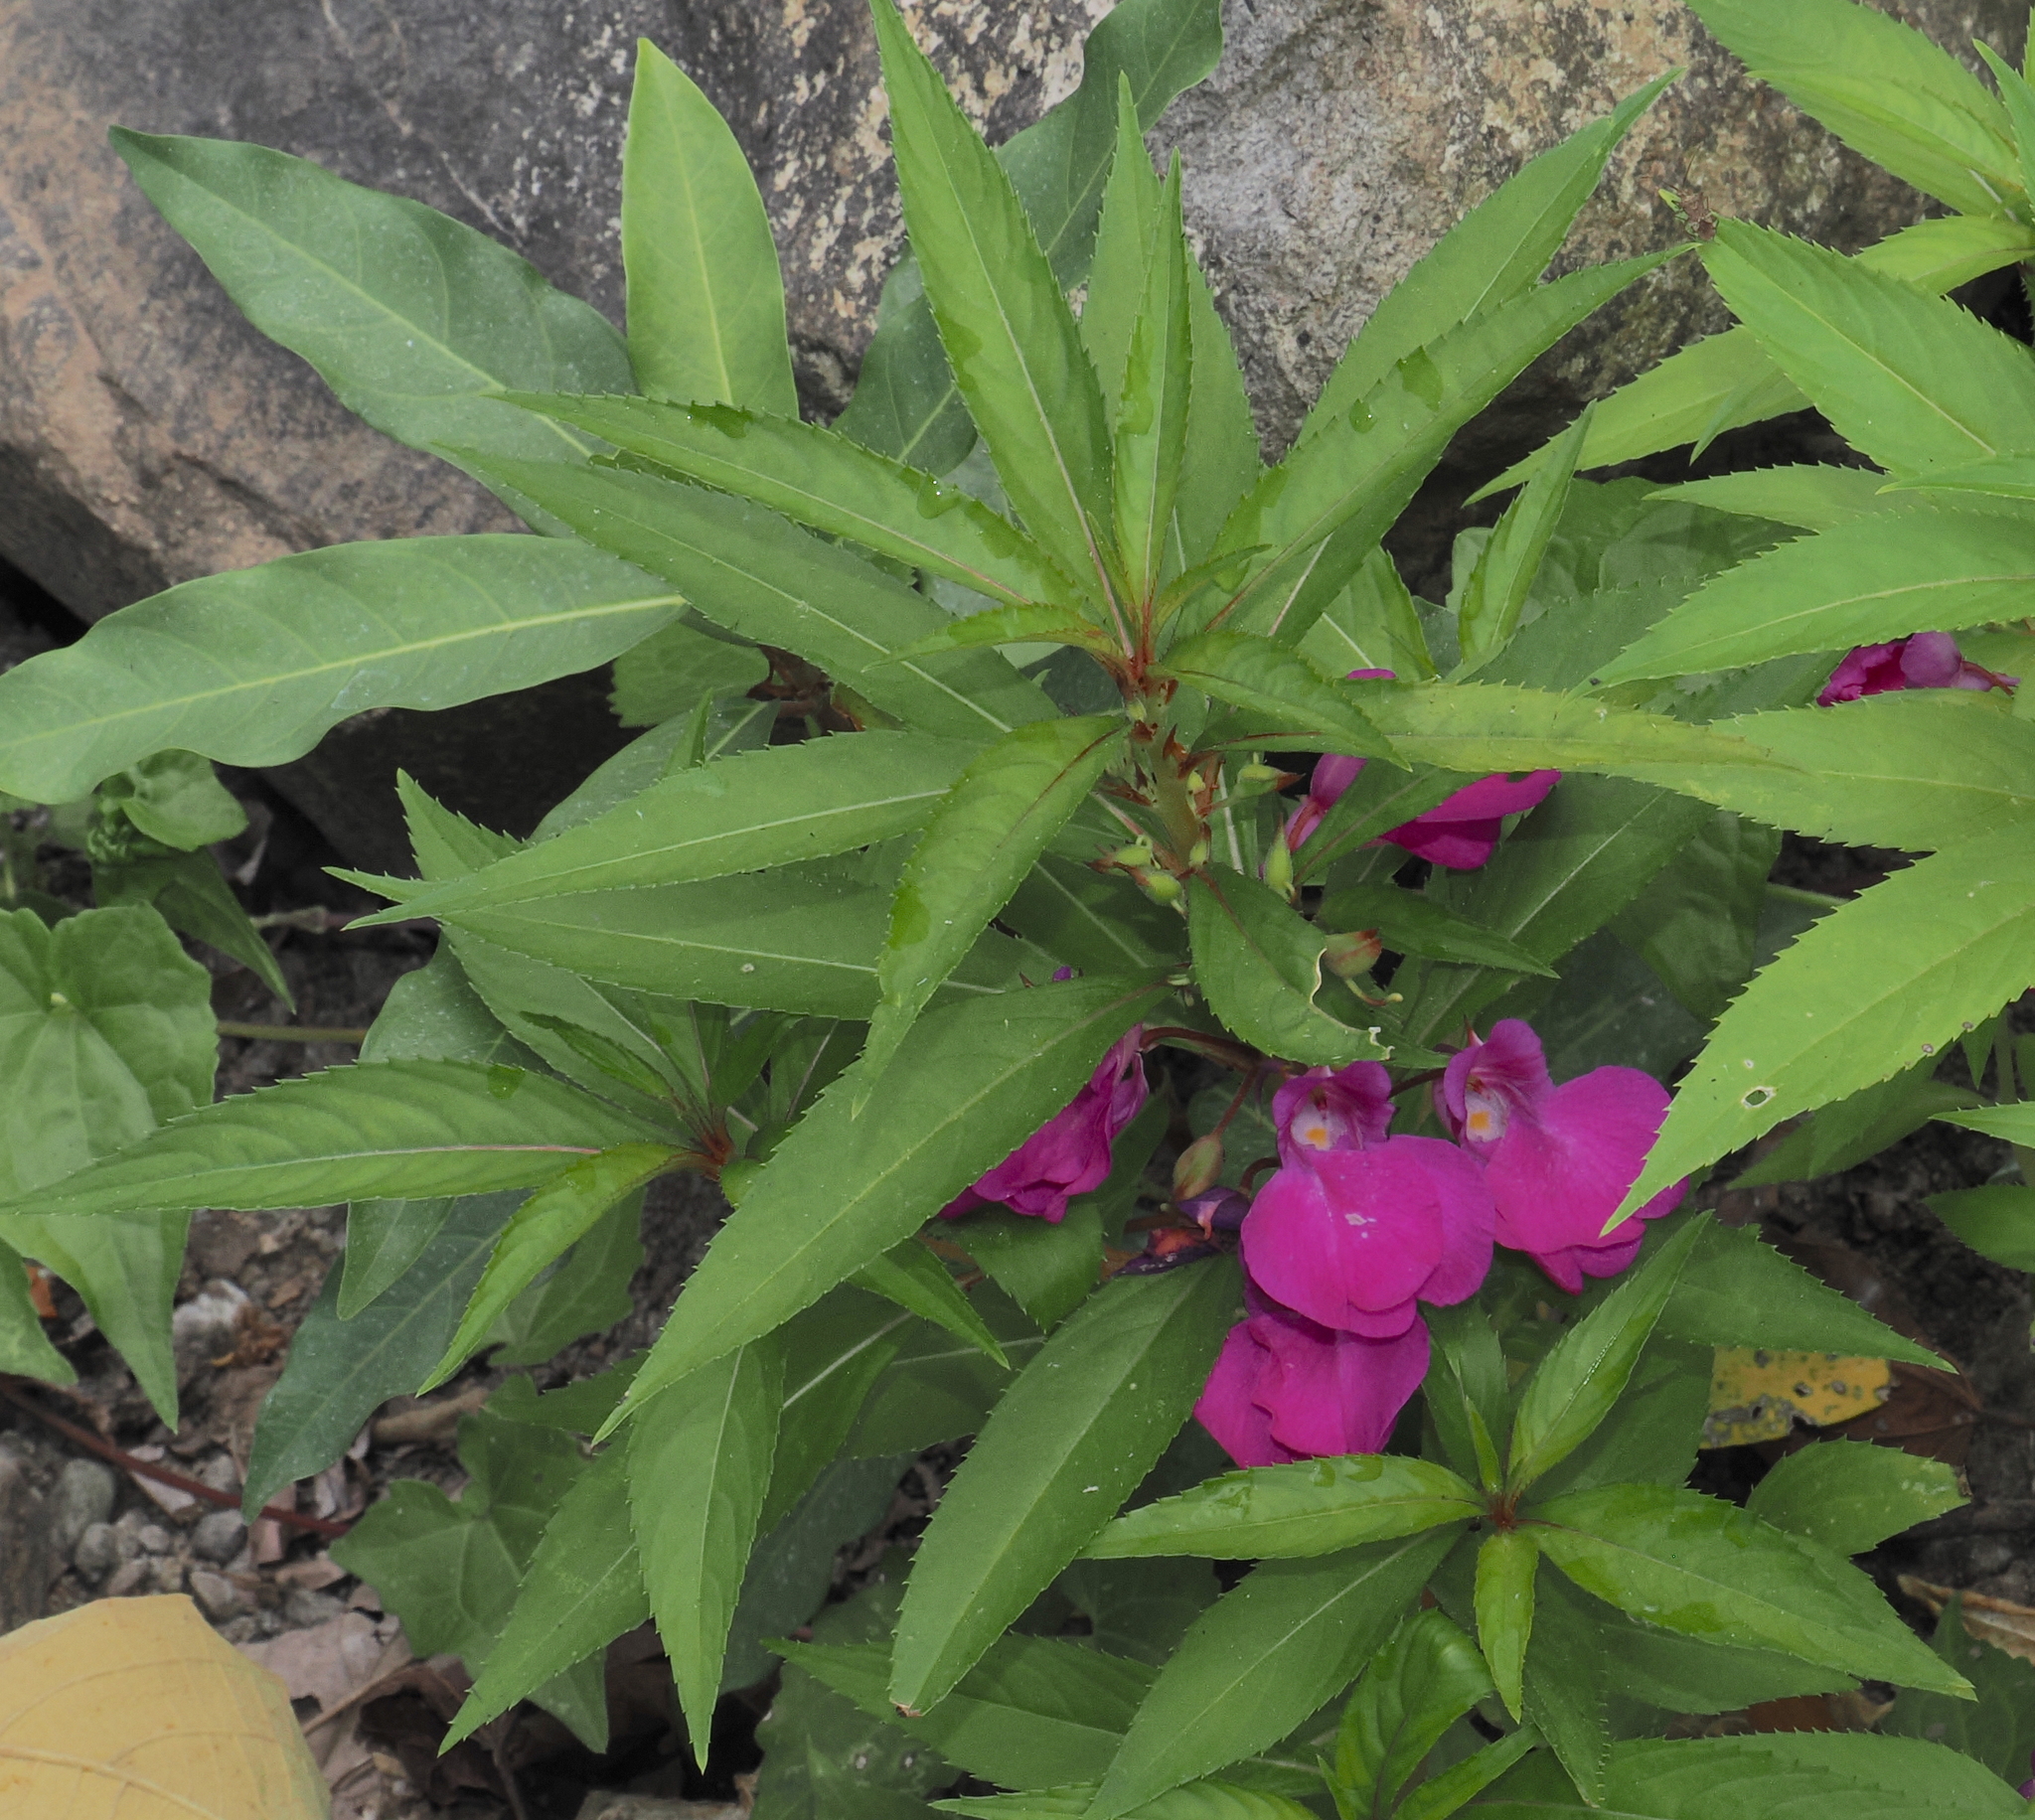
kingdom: Plantae
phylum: Tracheophyta
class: Magnoliopsida
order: Ericales
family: Balsaminaceae
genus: Impatiens
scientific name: Impatiens balsamina
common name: Balsam
